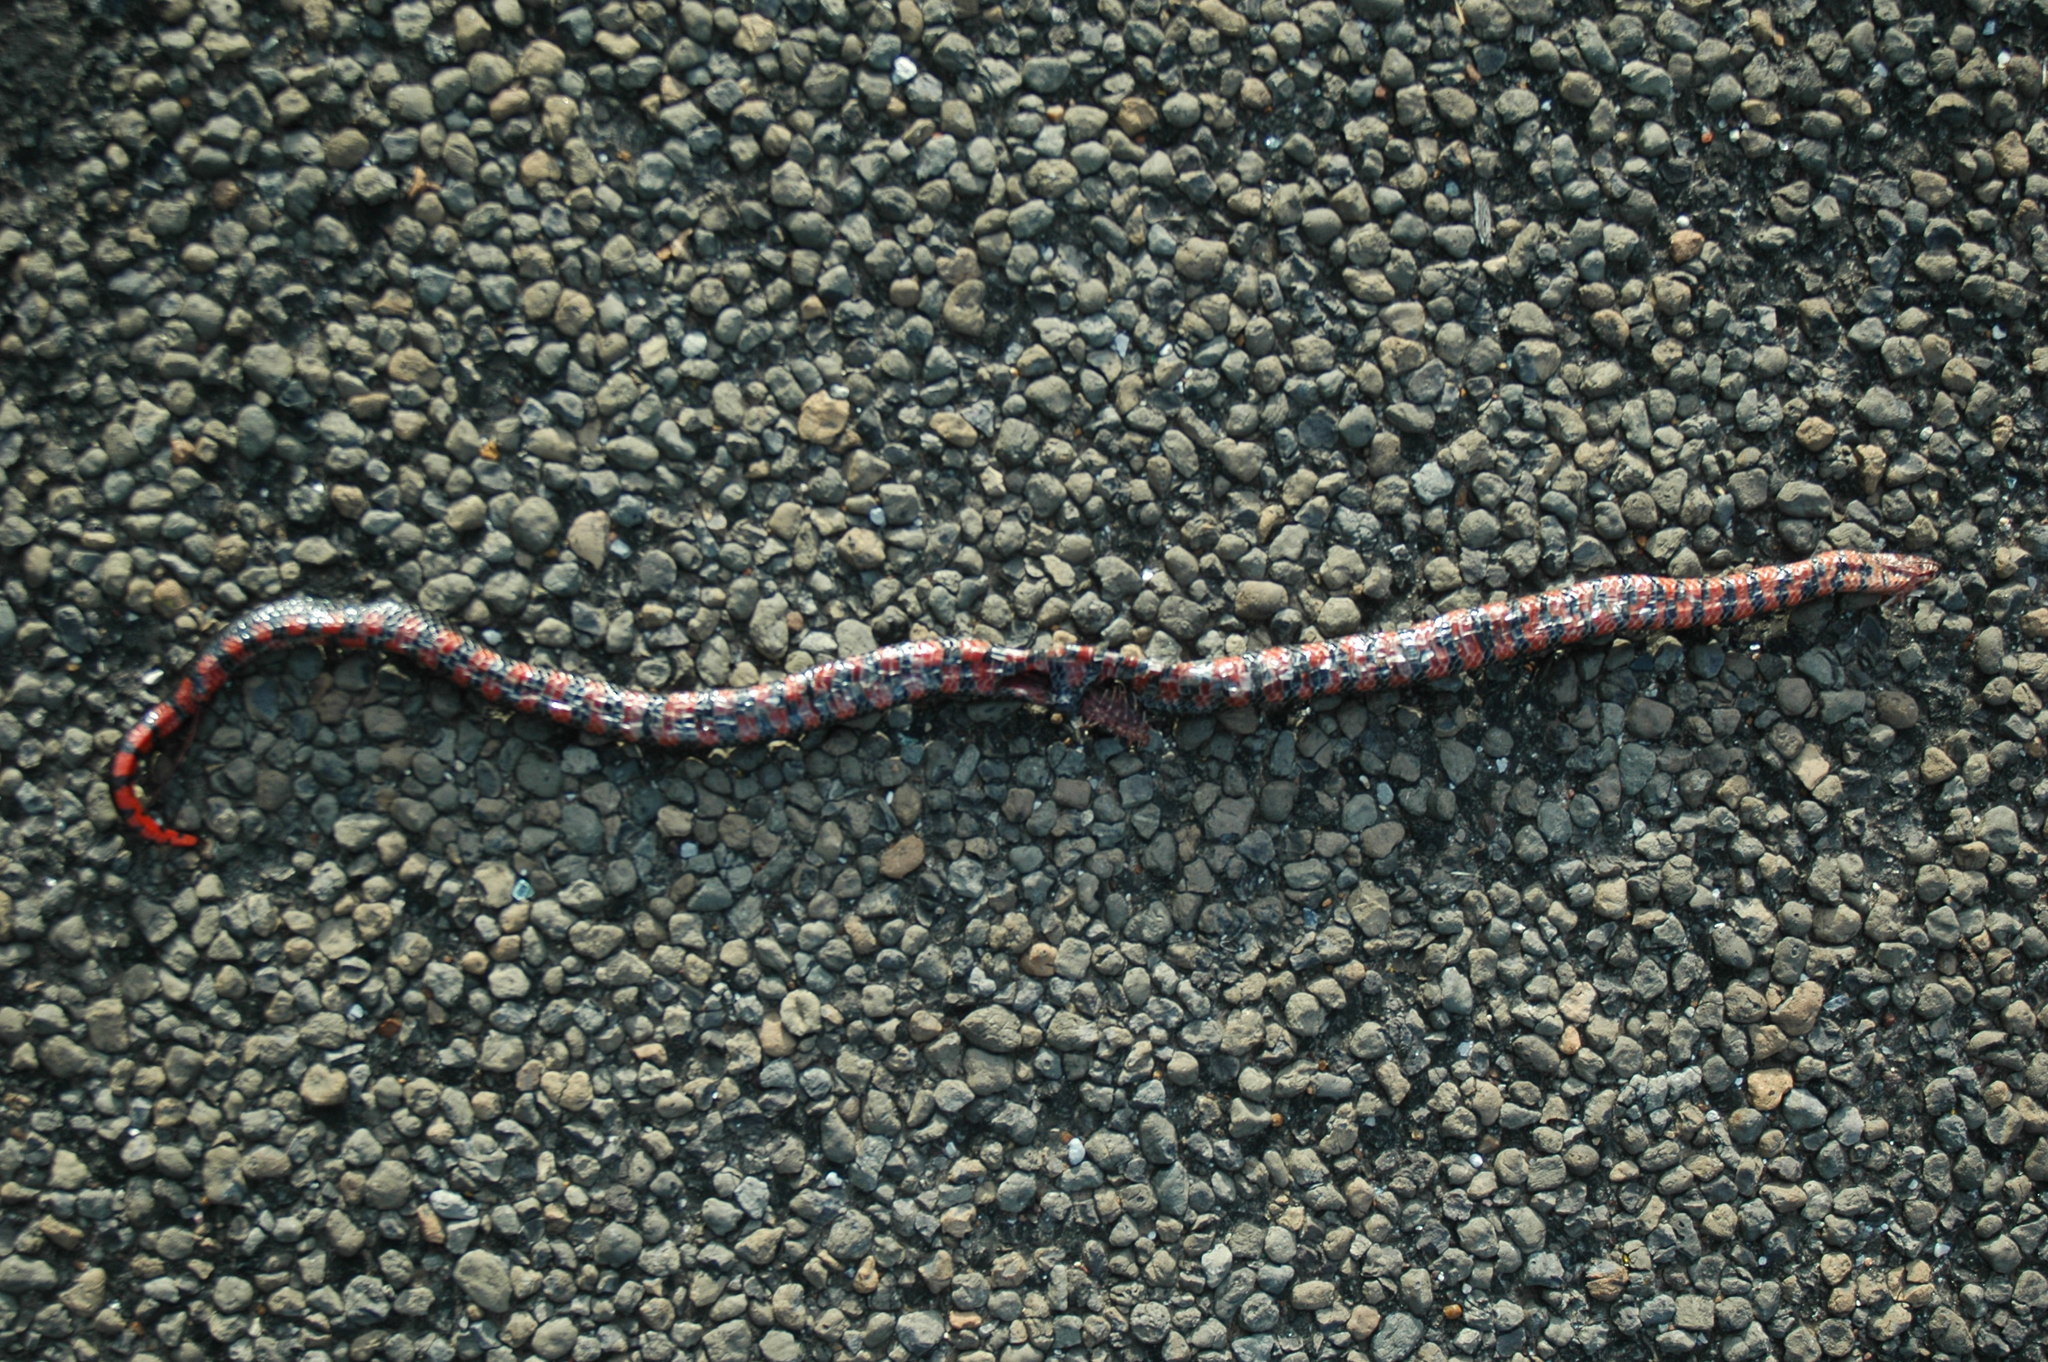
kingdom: Animalia
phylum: Chordata
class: Squamata
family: Colubridae
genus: Farancia
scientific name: Farancia abacura
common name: Mud snake
